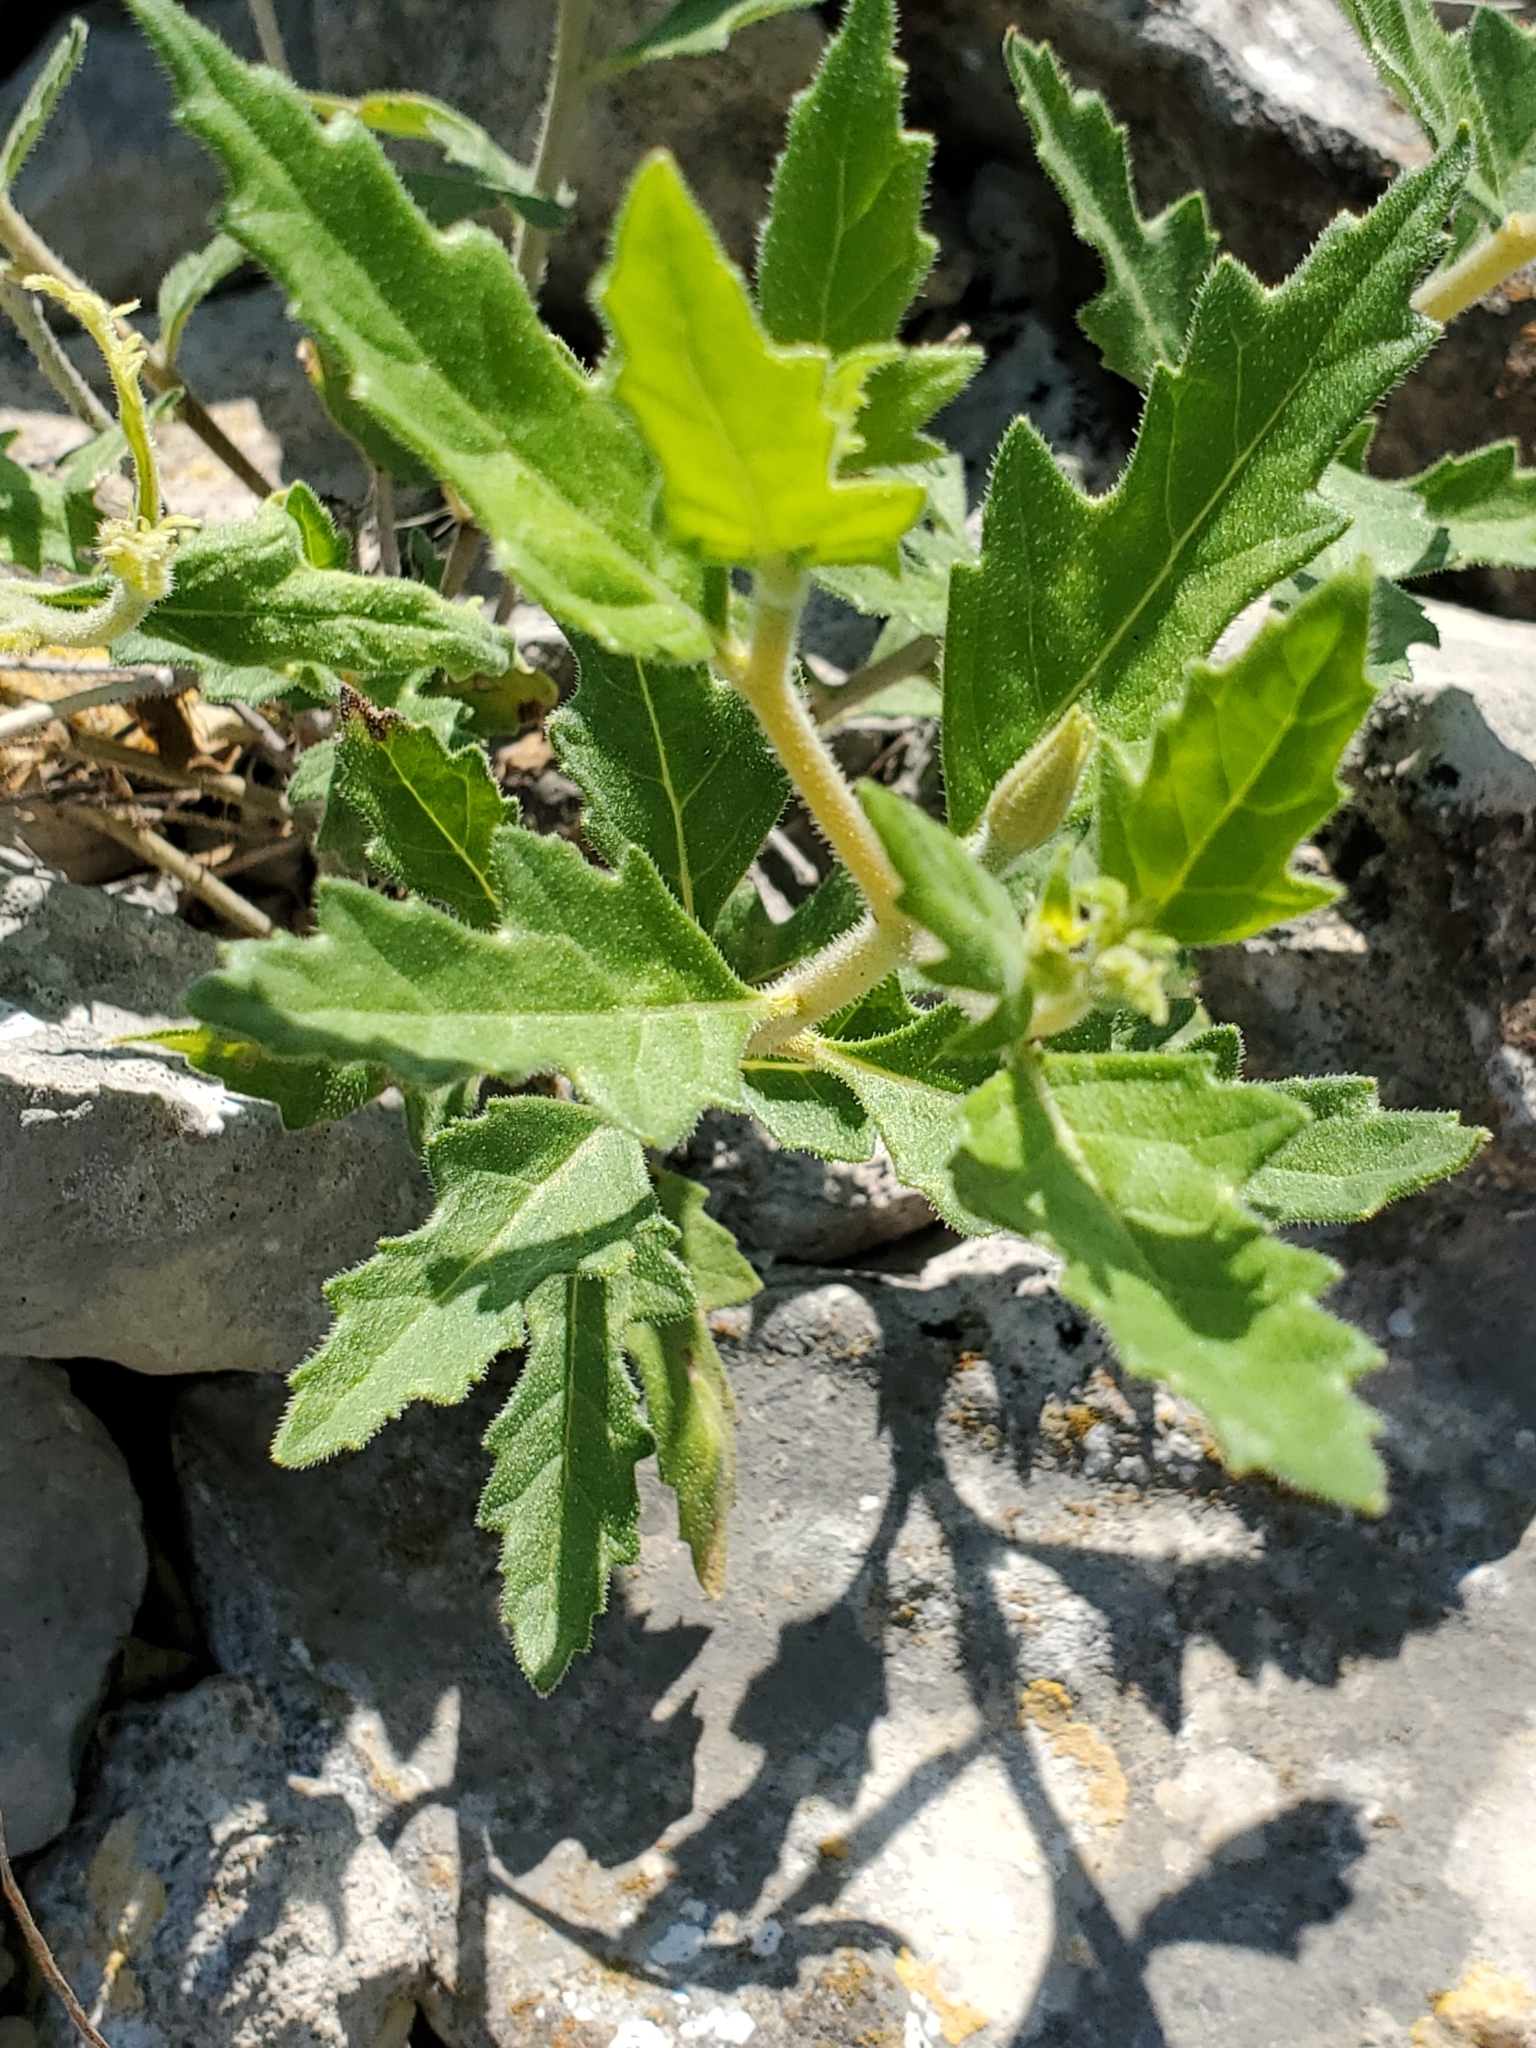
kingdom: Plantae
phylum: Tracheophyta
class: Magnoliopsida
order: Cornales
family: Loasaceae
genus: Mentzelia
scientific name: Mentzelia oligosperma
